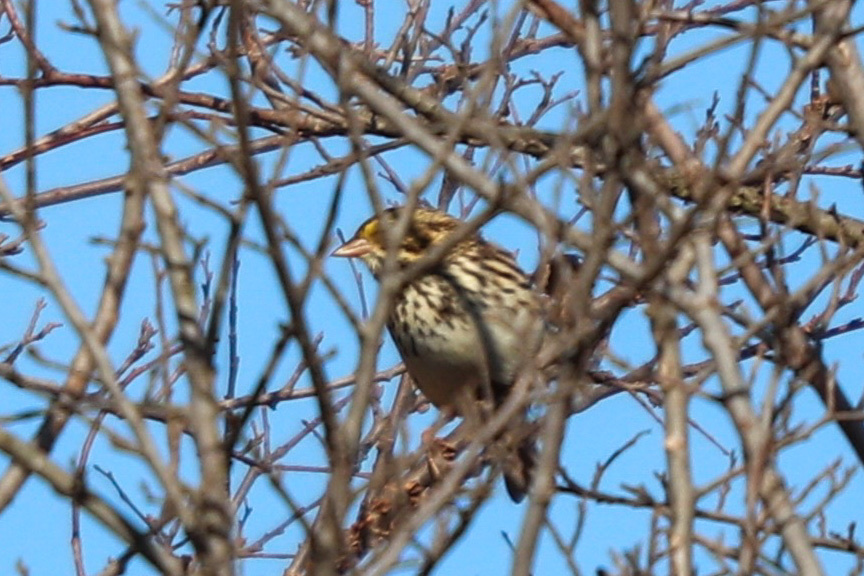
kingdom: Animalia
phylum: Chordata
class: Aves
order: Passeriformes
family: Passerellidae
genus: Passerculus
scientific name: Passerculus sandwichensis
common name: Savannah sparrow
